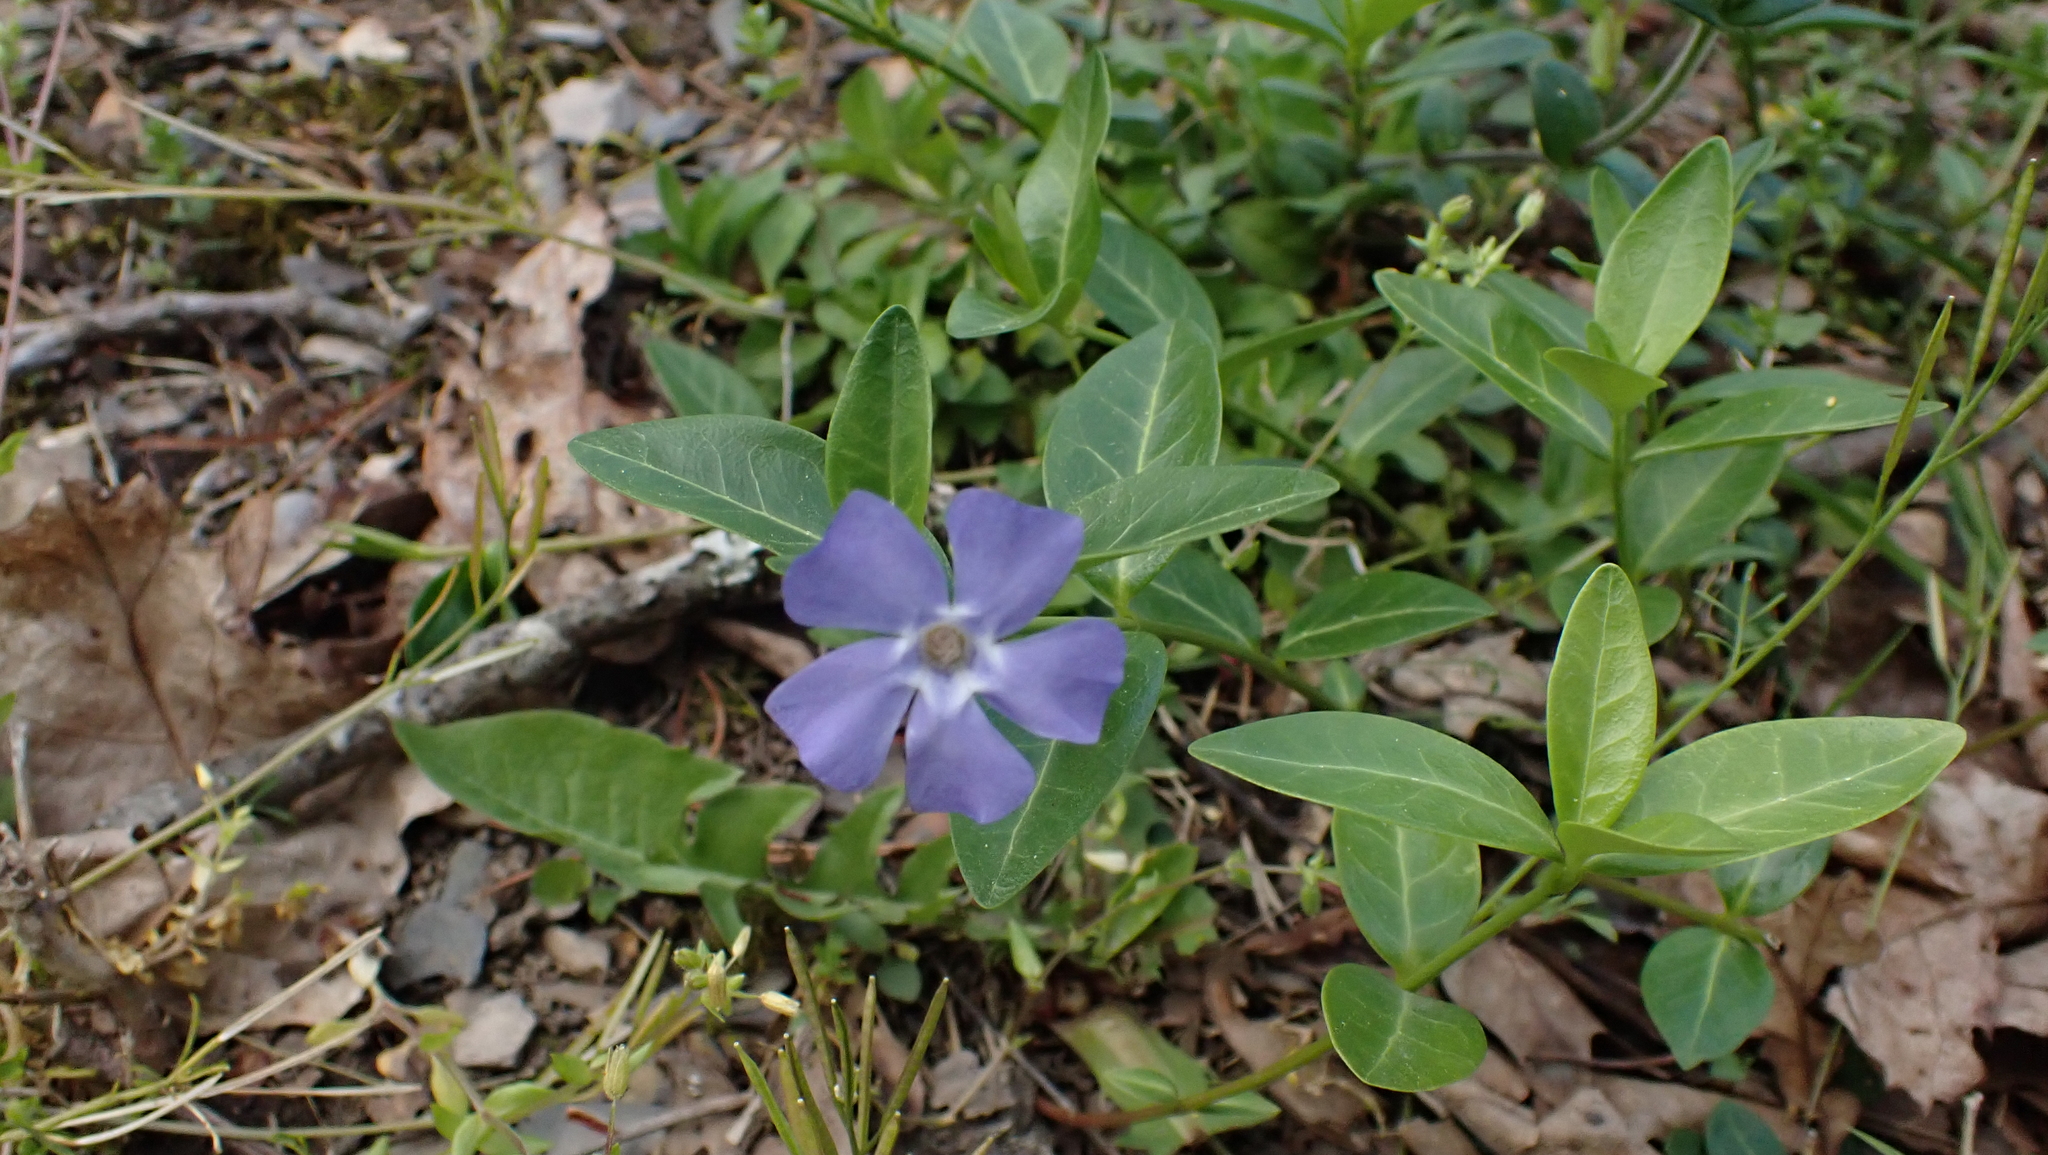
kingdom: Plantae
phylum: Tracheophyta
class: Magnoliopsida
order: Gentianales
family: Apocynaceae
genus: Vinca
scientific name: Vinca minor
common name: Lesser periwinkle
